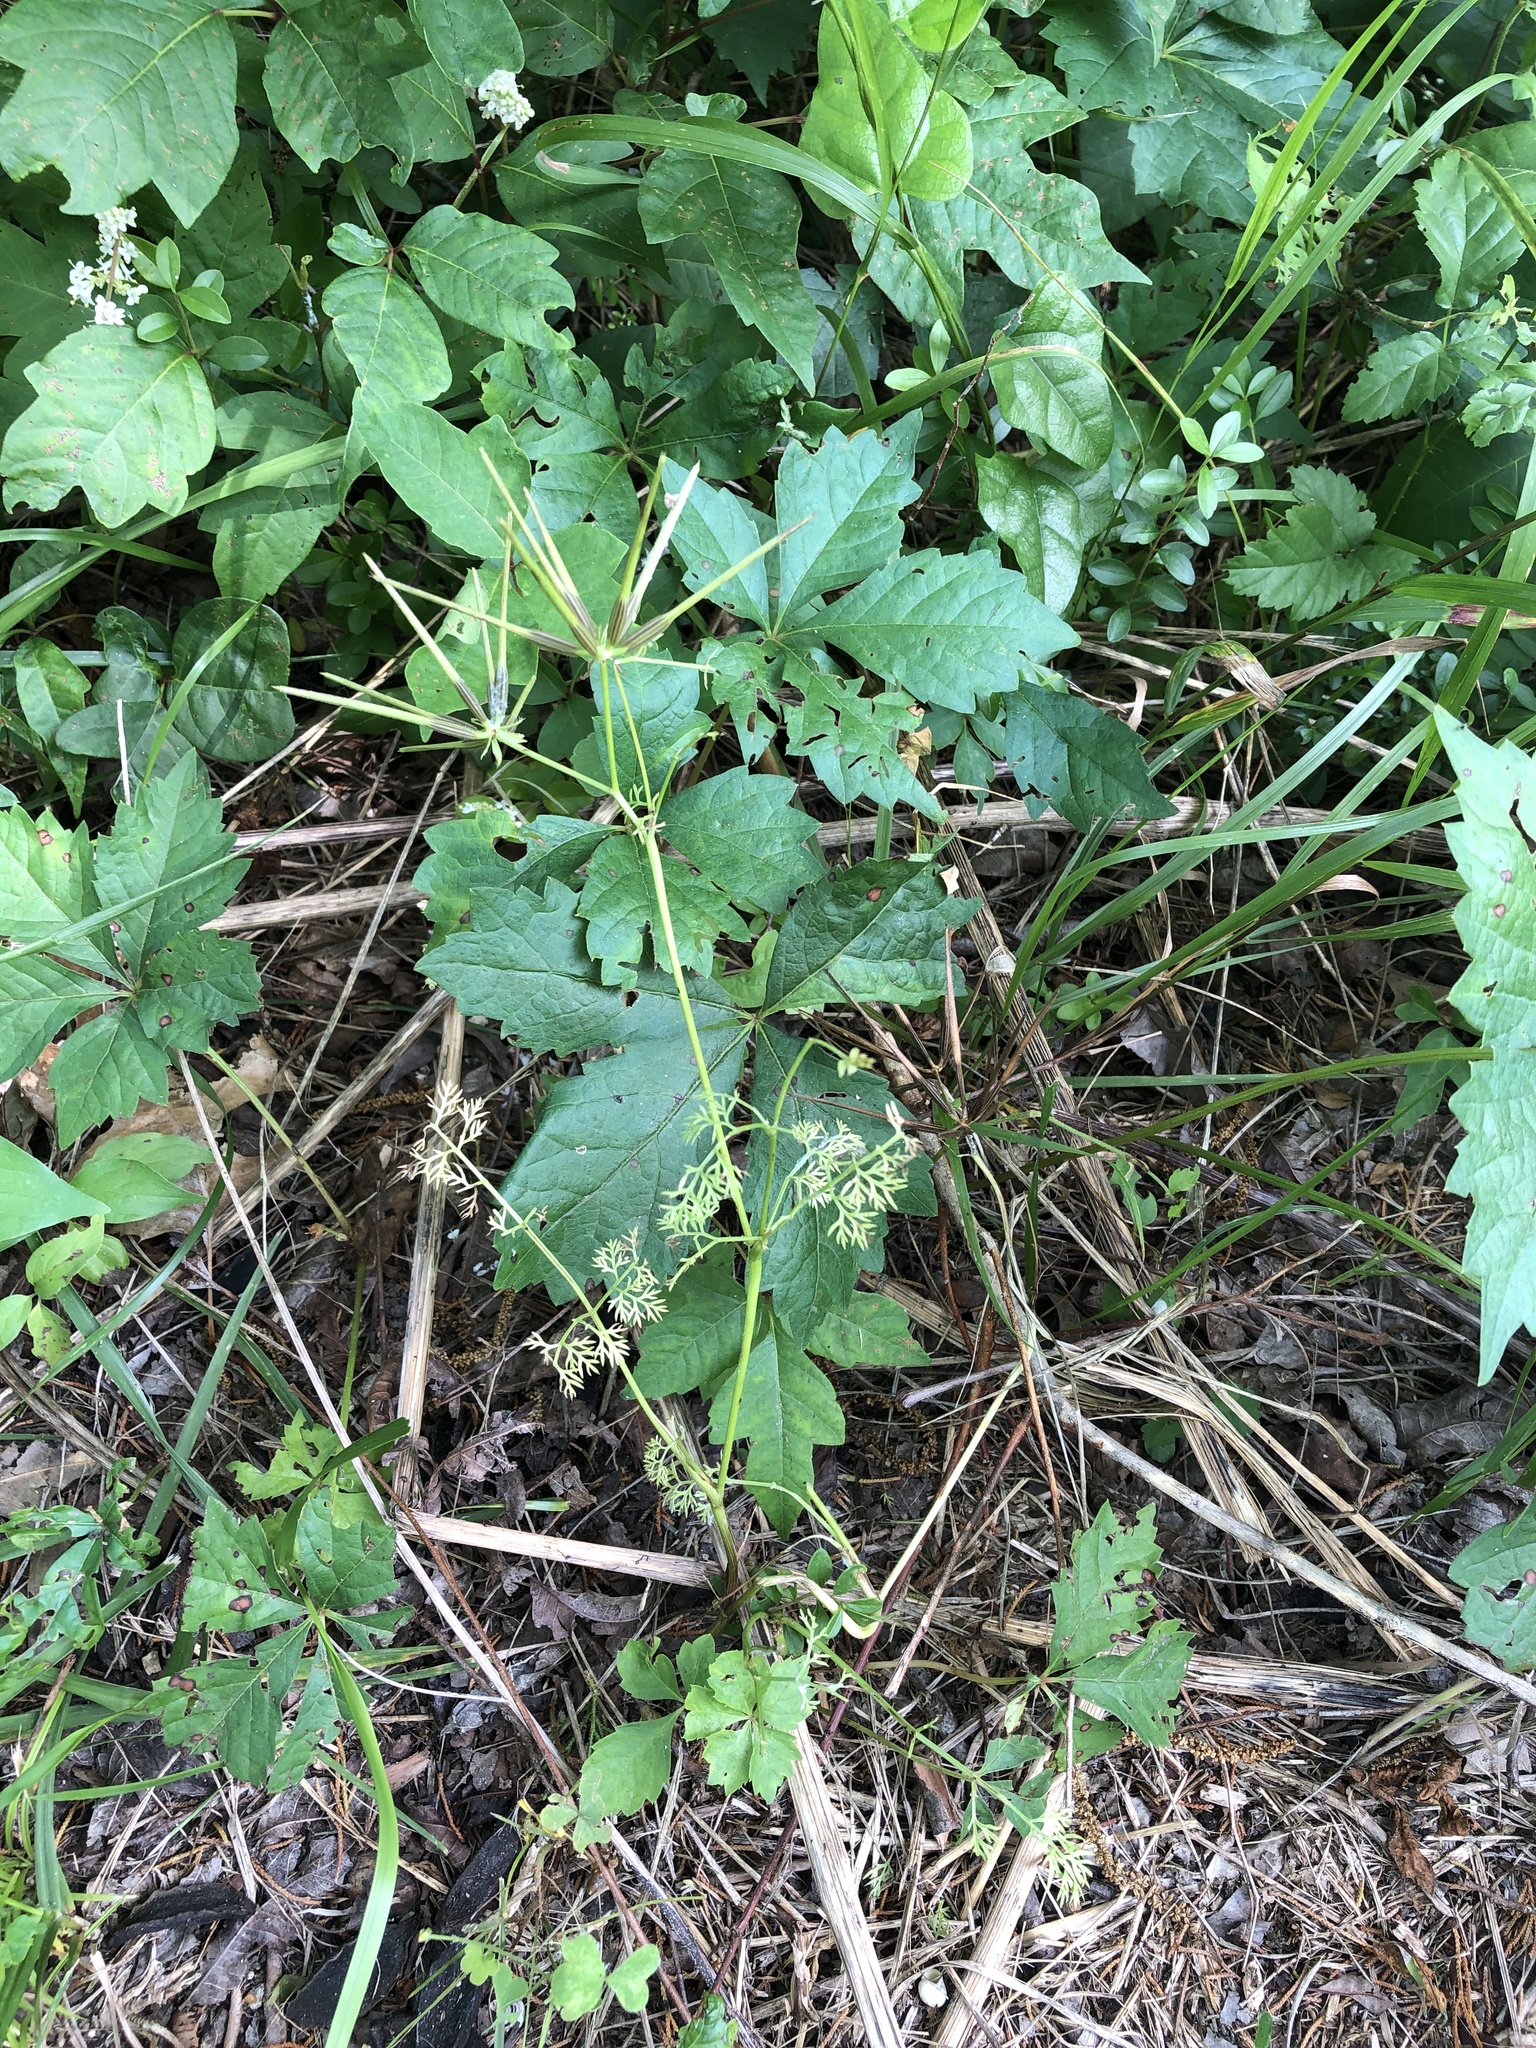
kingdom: Plantae
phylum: Tracheophyta
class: Magnoliopsida
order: Apiales
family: Apiaceae
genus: Scandix
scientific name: Scandix pecten-veneris
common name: Shepherd's-needle
